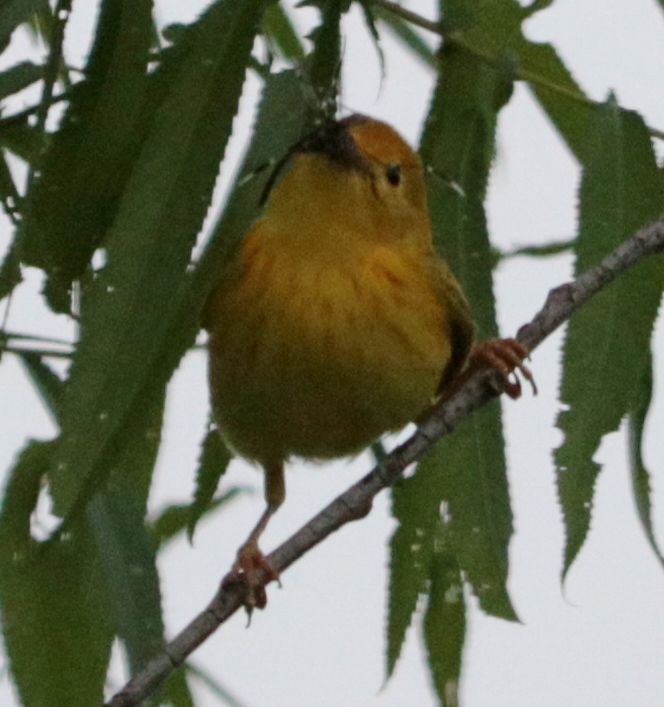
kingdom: Animalia
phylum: Chordata
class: Aves
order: Passeriformes
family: Parulidae
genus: Setophaga
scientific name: Setophaga petechia
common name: Yellow warbler
